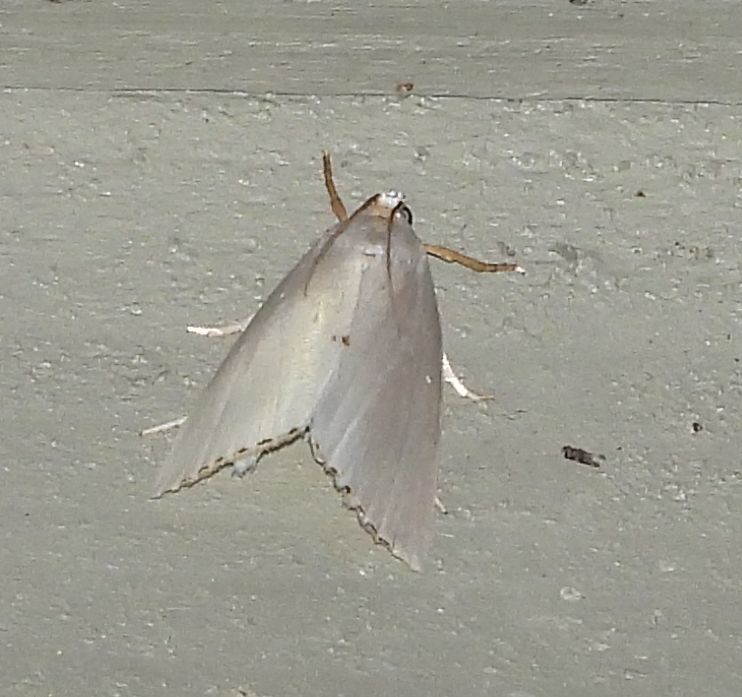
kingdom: Animalia
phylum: Arthropoda
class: Insecta
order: Lepidoptera
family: Crambidae
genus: Argyria
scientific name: Argyria nivalis
